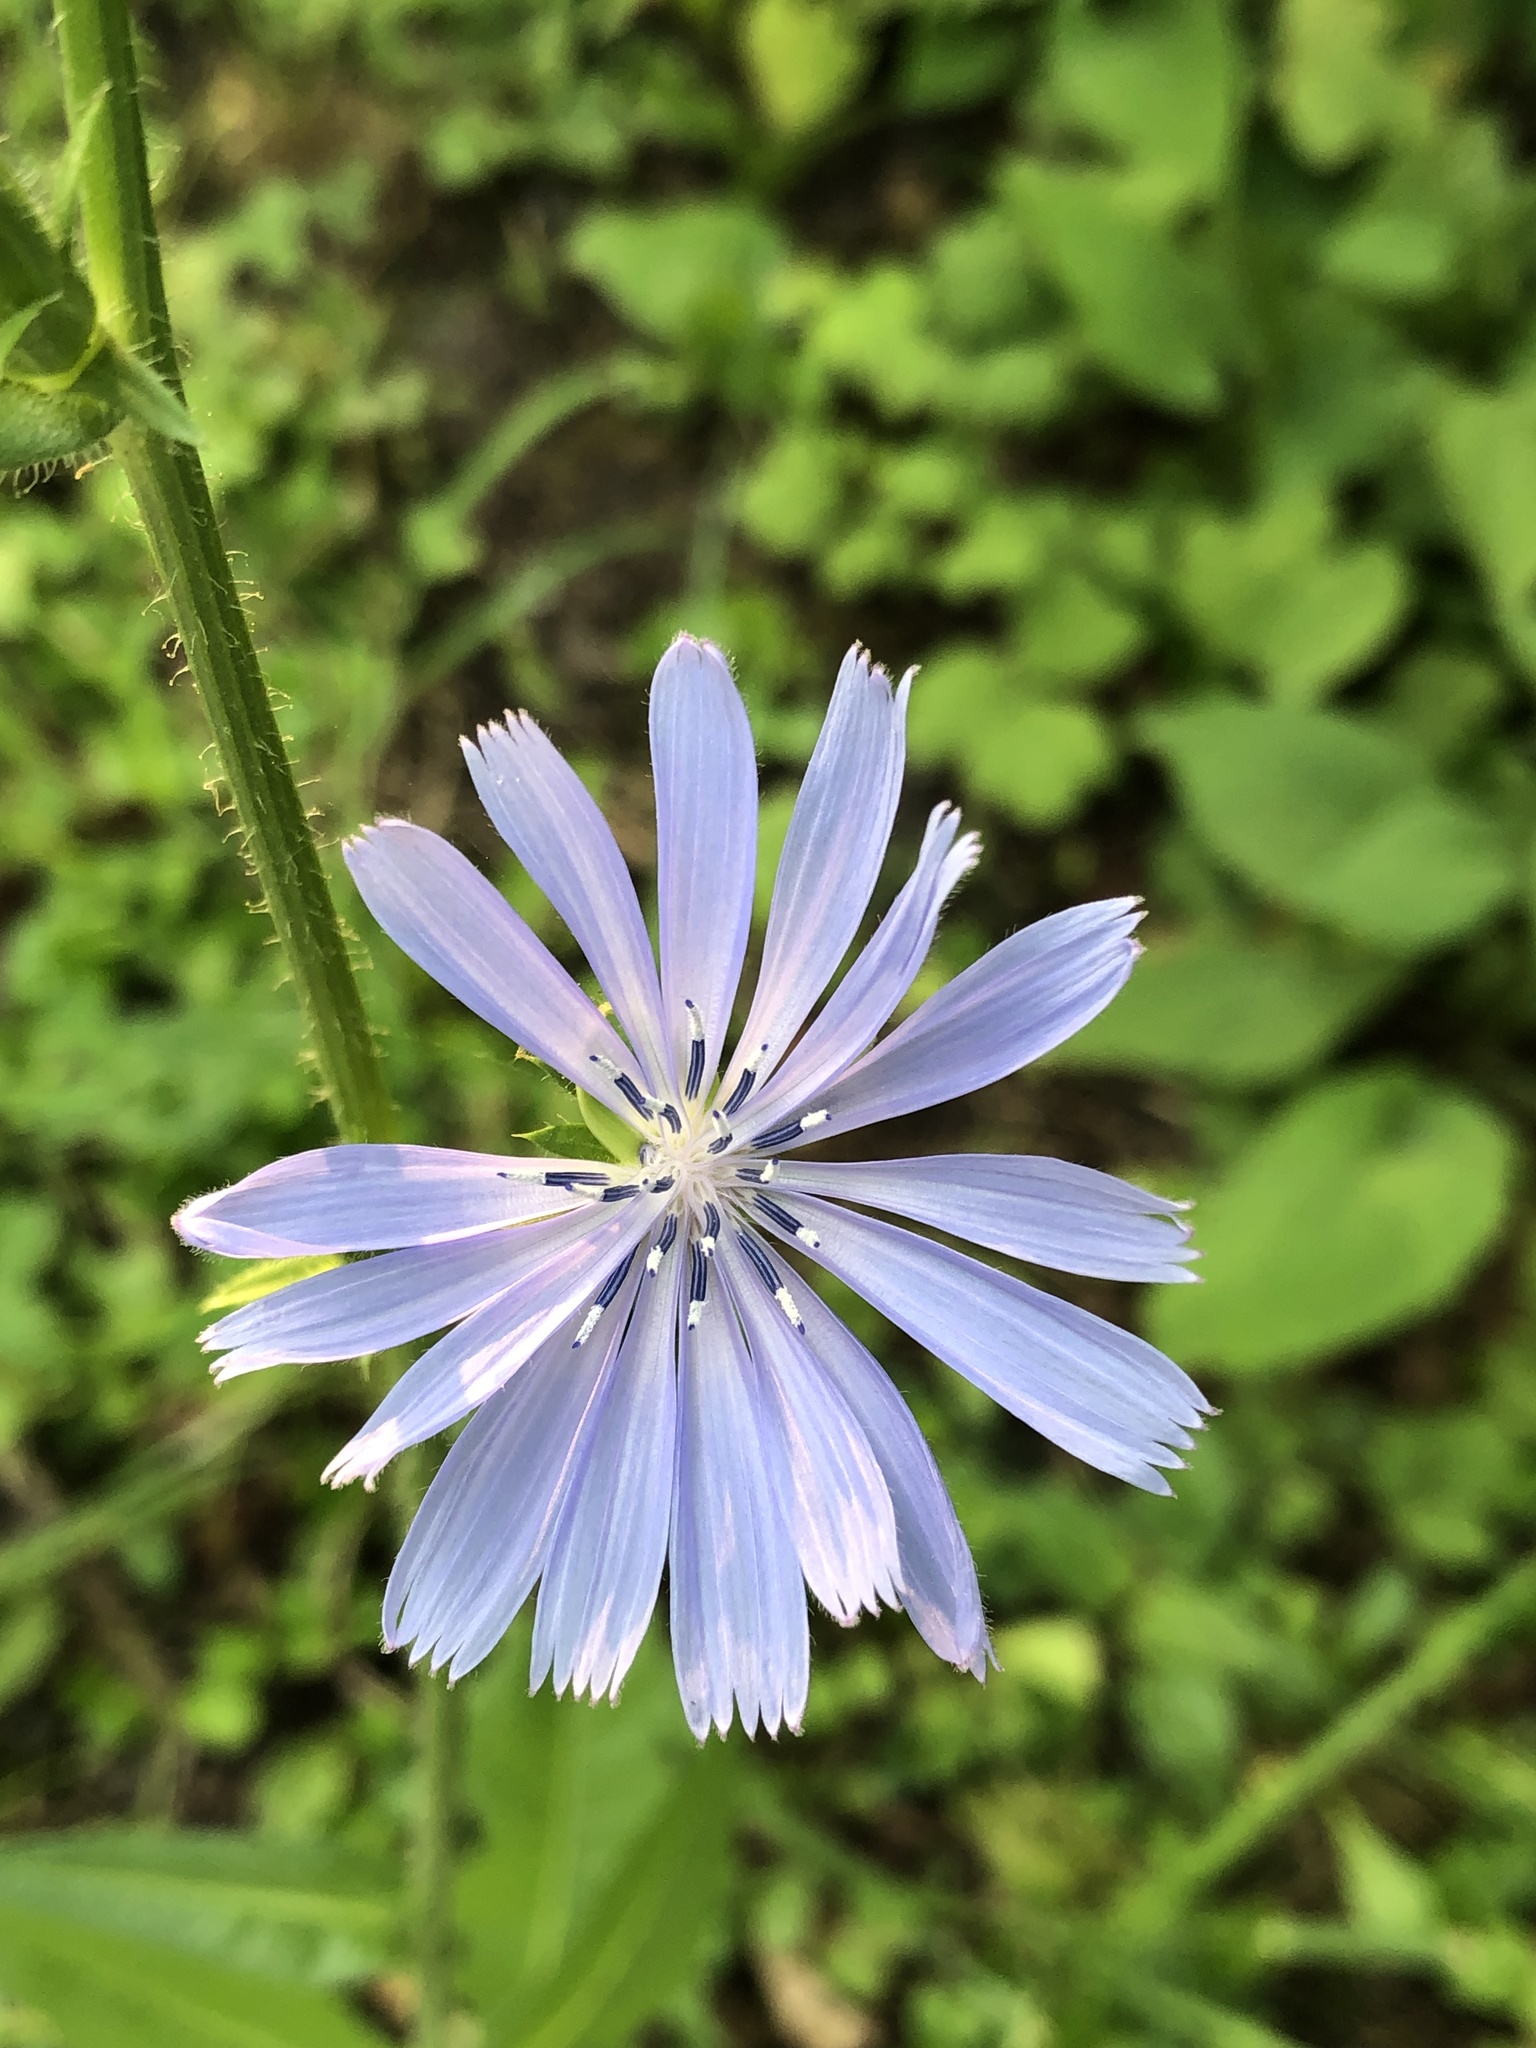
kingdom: Plantae
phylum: Tracheophyta
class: Magnoliopsida
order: Asterales
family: Asteraceae
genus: Cichorium
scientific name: Cichorium intybus
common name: Chicory
